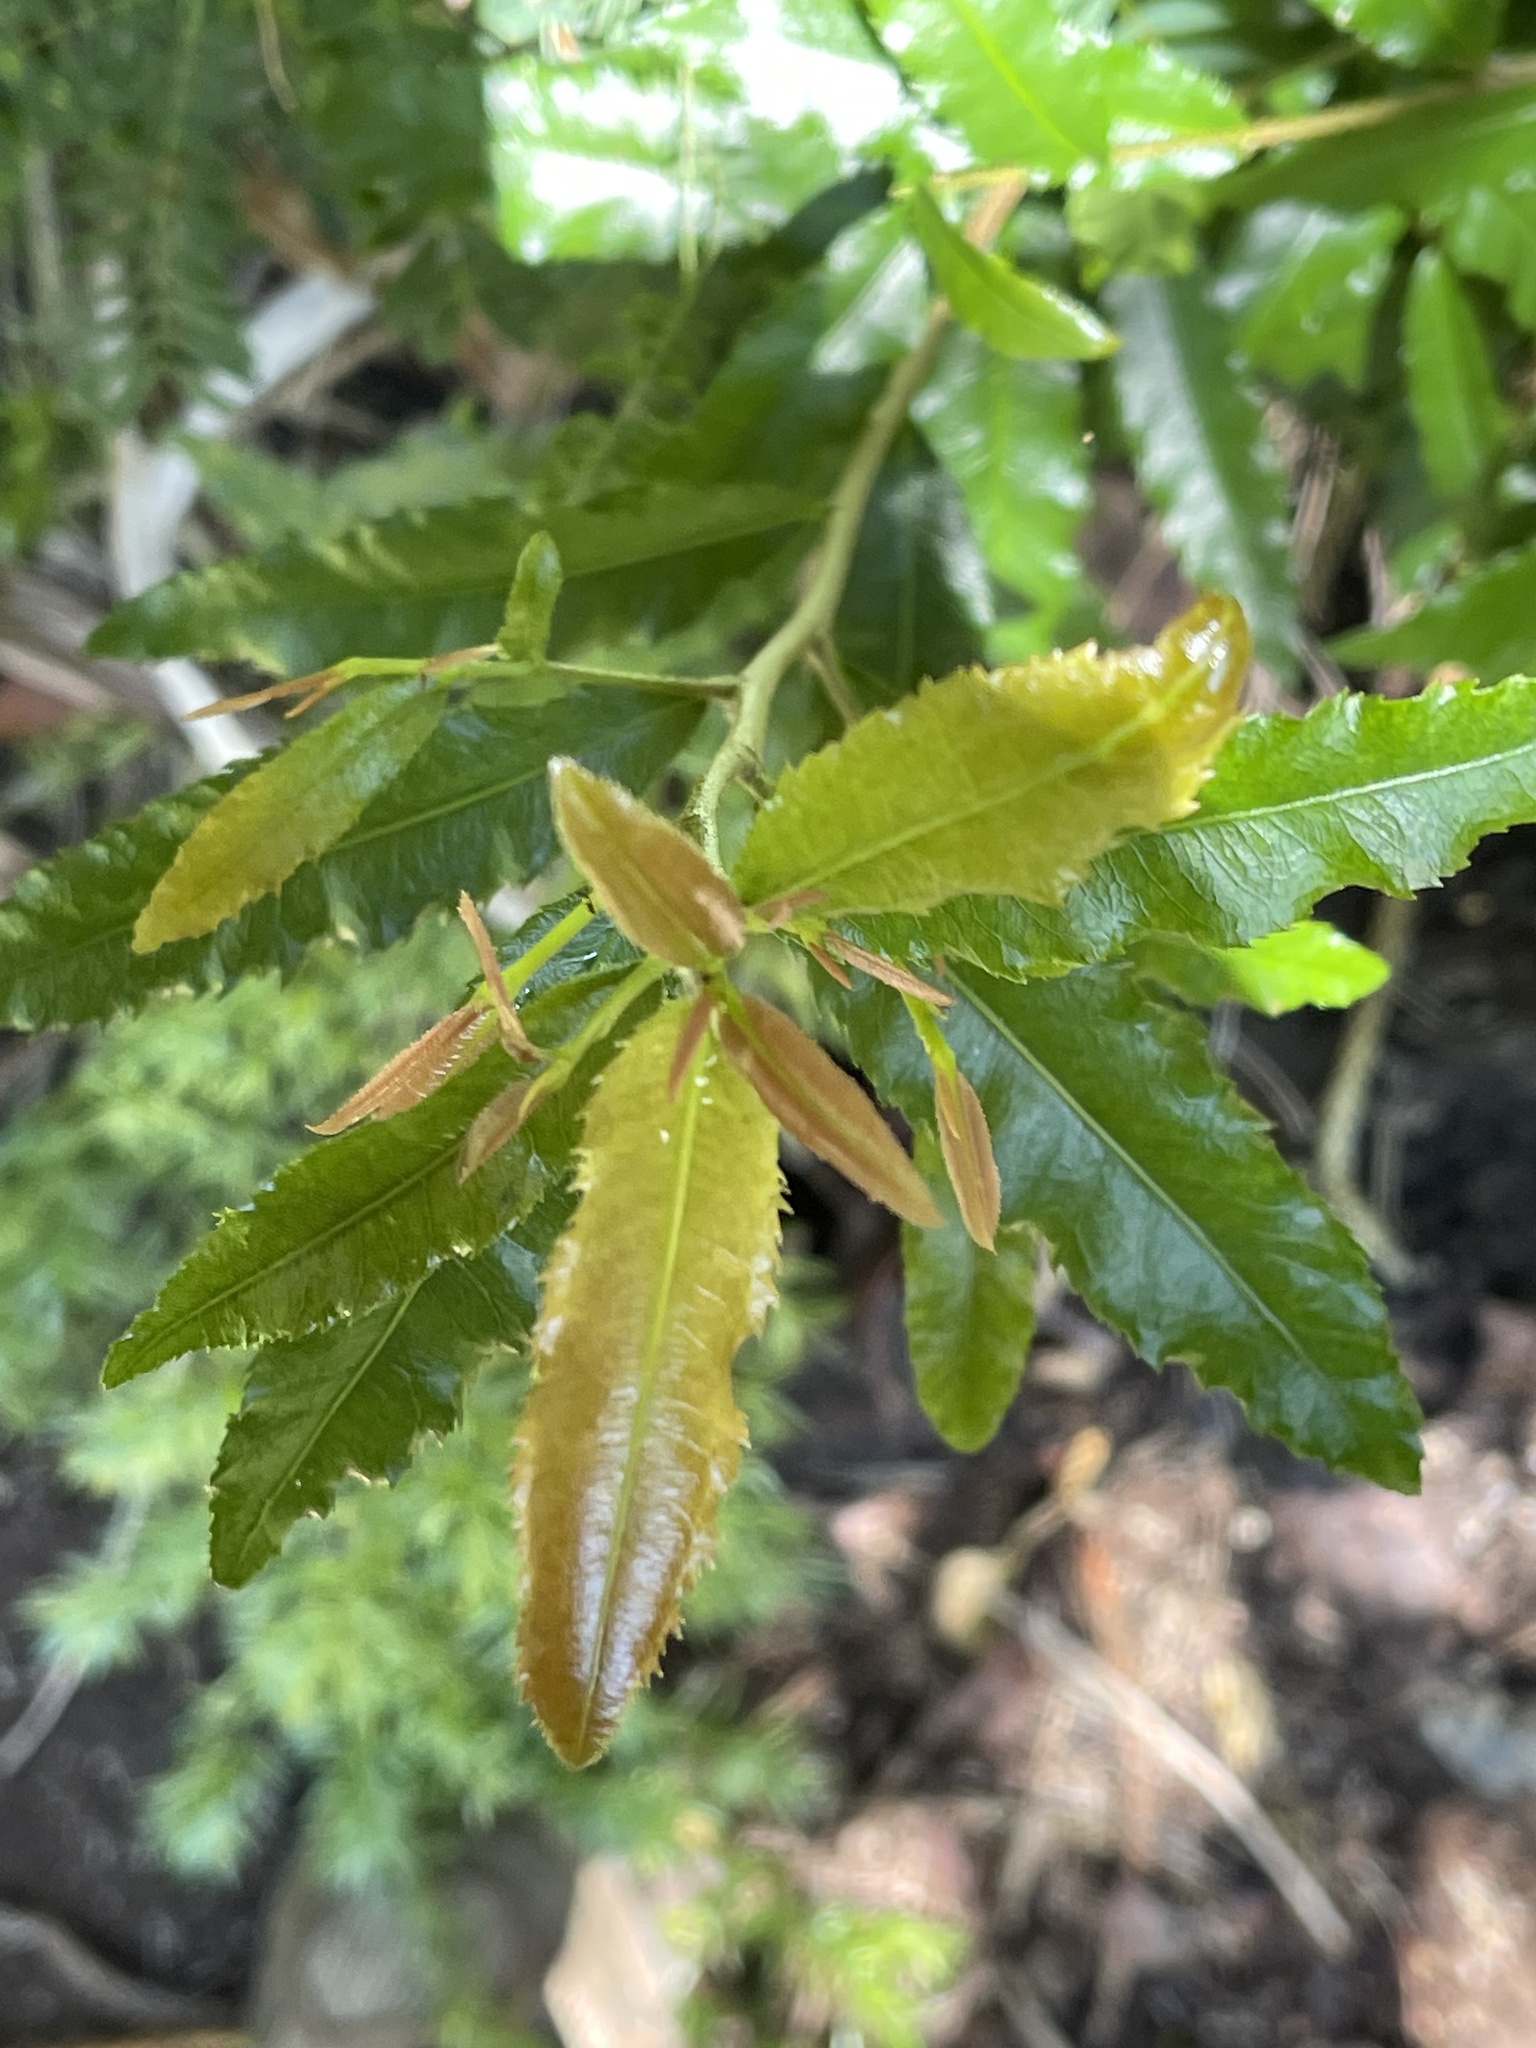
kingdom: Plantae
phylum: Tracheophyta
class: Magnoliopsida
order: Malpighiales
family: Ochnaceae
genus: Ochna
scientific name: Ochna serrulata
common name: Mickey mouse plant
